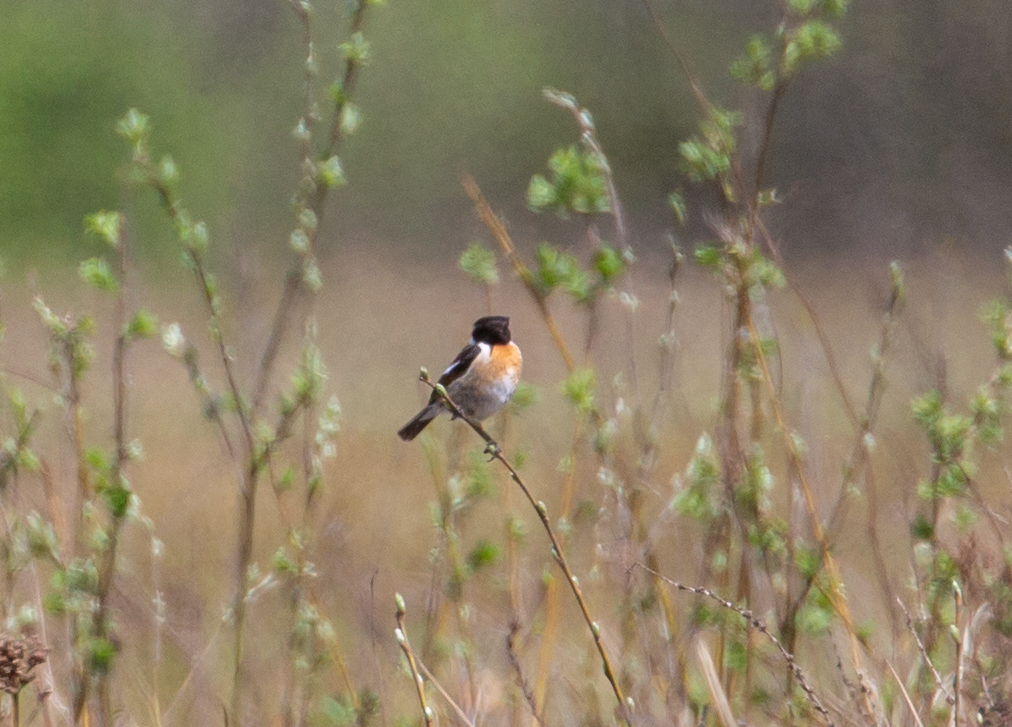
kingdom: Animalia
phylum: Chordata
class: Aves
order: Passeriformes
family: Muscicapidae
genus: Saxicola
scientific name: Saxicola rubicola
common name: European stonechat
